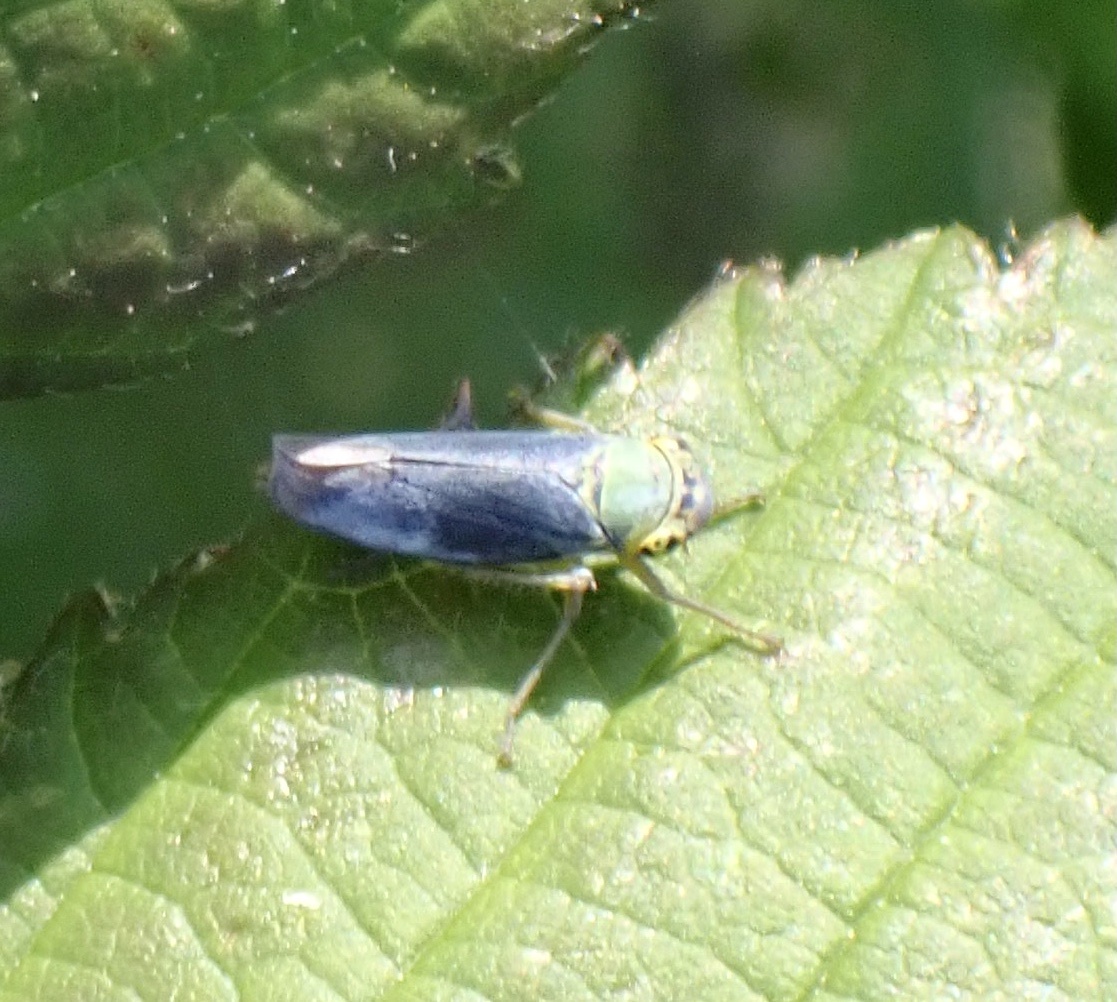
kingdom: Animalia
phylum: Arthropoda
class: Insecta
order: Hemiptera
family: Cicadellidae
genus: Cicadella
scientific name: Cicadella viridis
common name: Leafhopper
